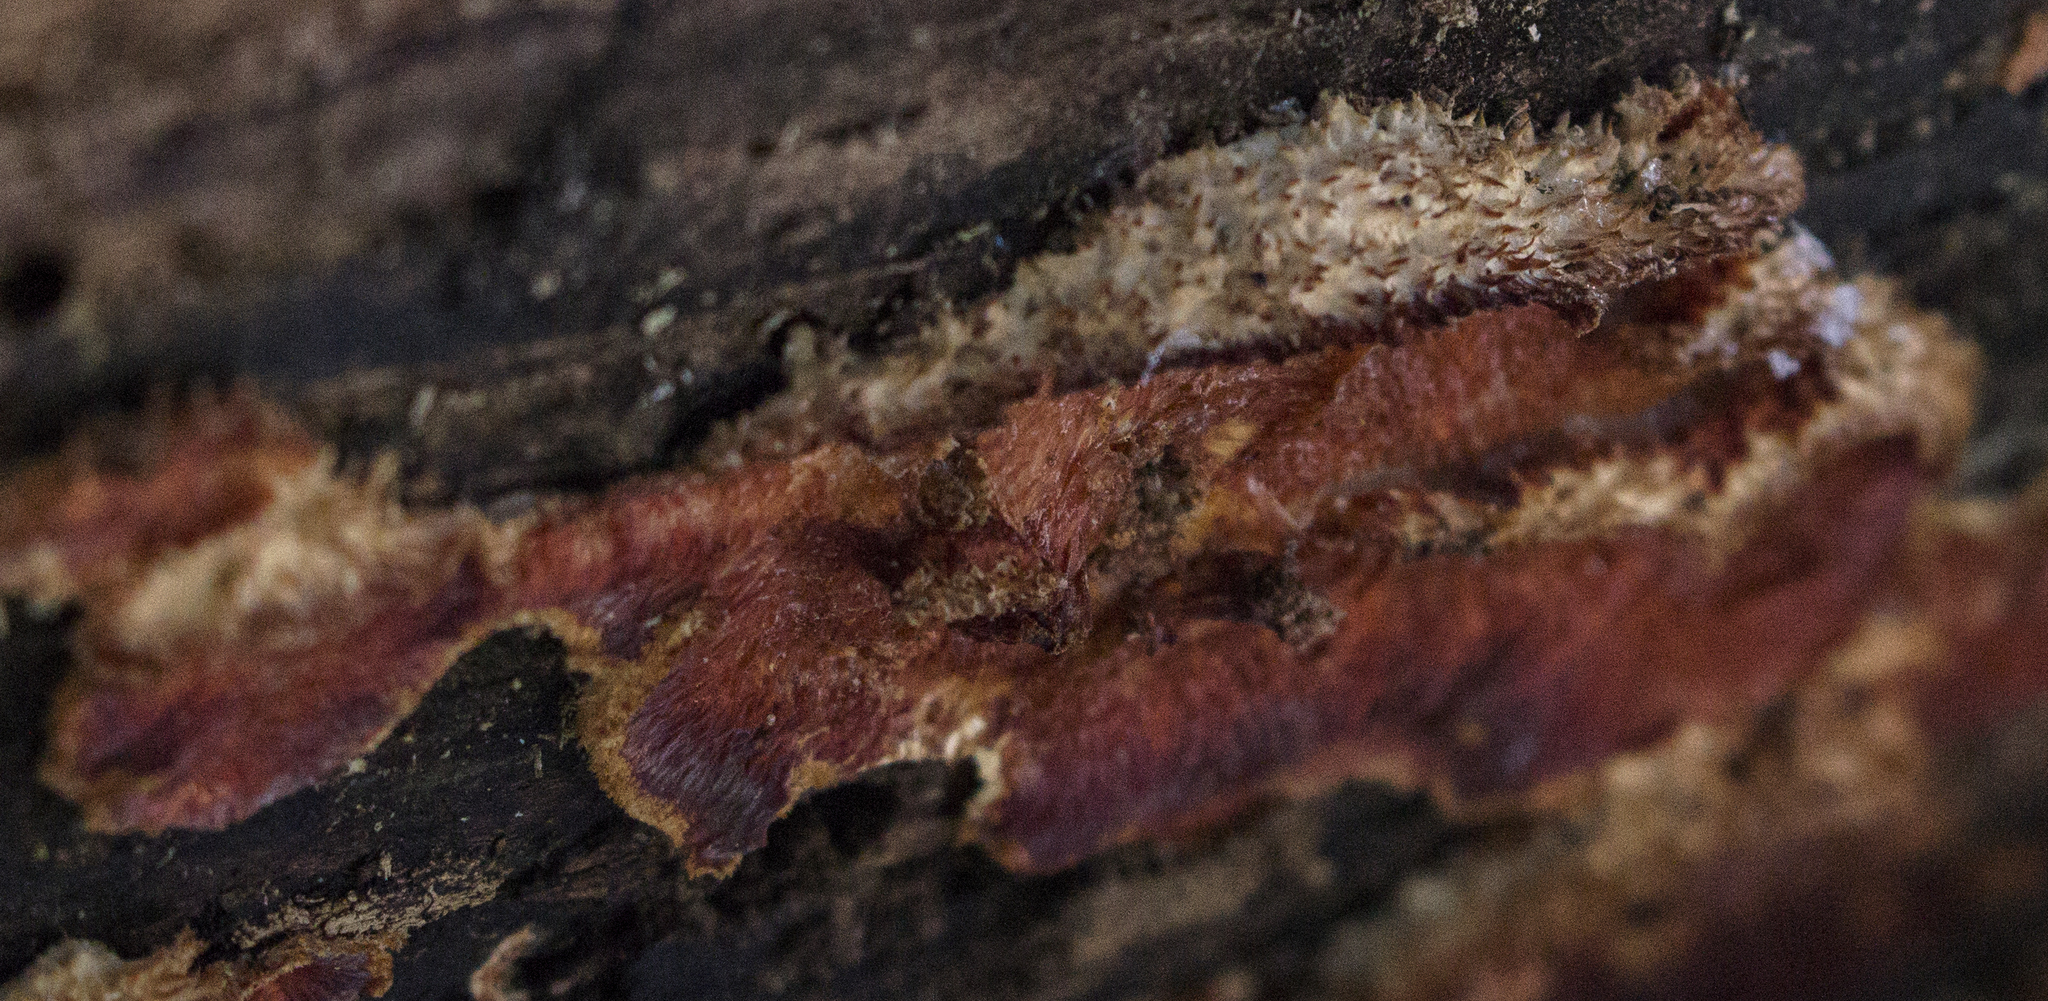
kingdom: Fungi
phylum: Basidiomycota
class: Agaricomycetes
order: Polyporales
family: Meruliaceae
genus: Phlebia
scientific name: Phlebia tremellosa
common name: Jelly rot
